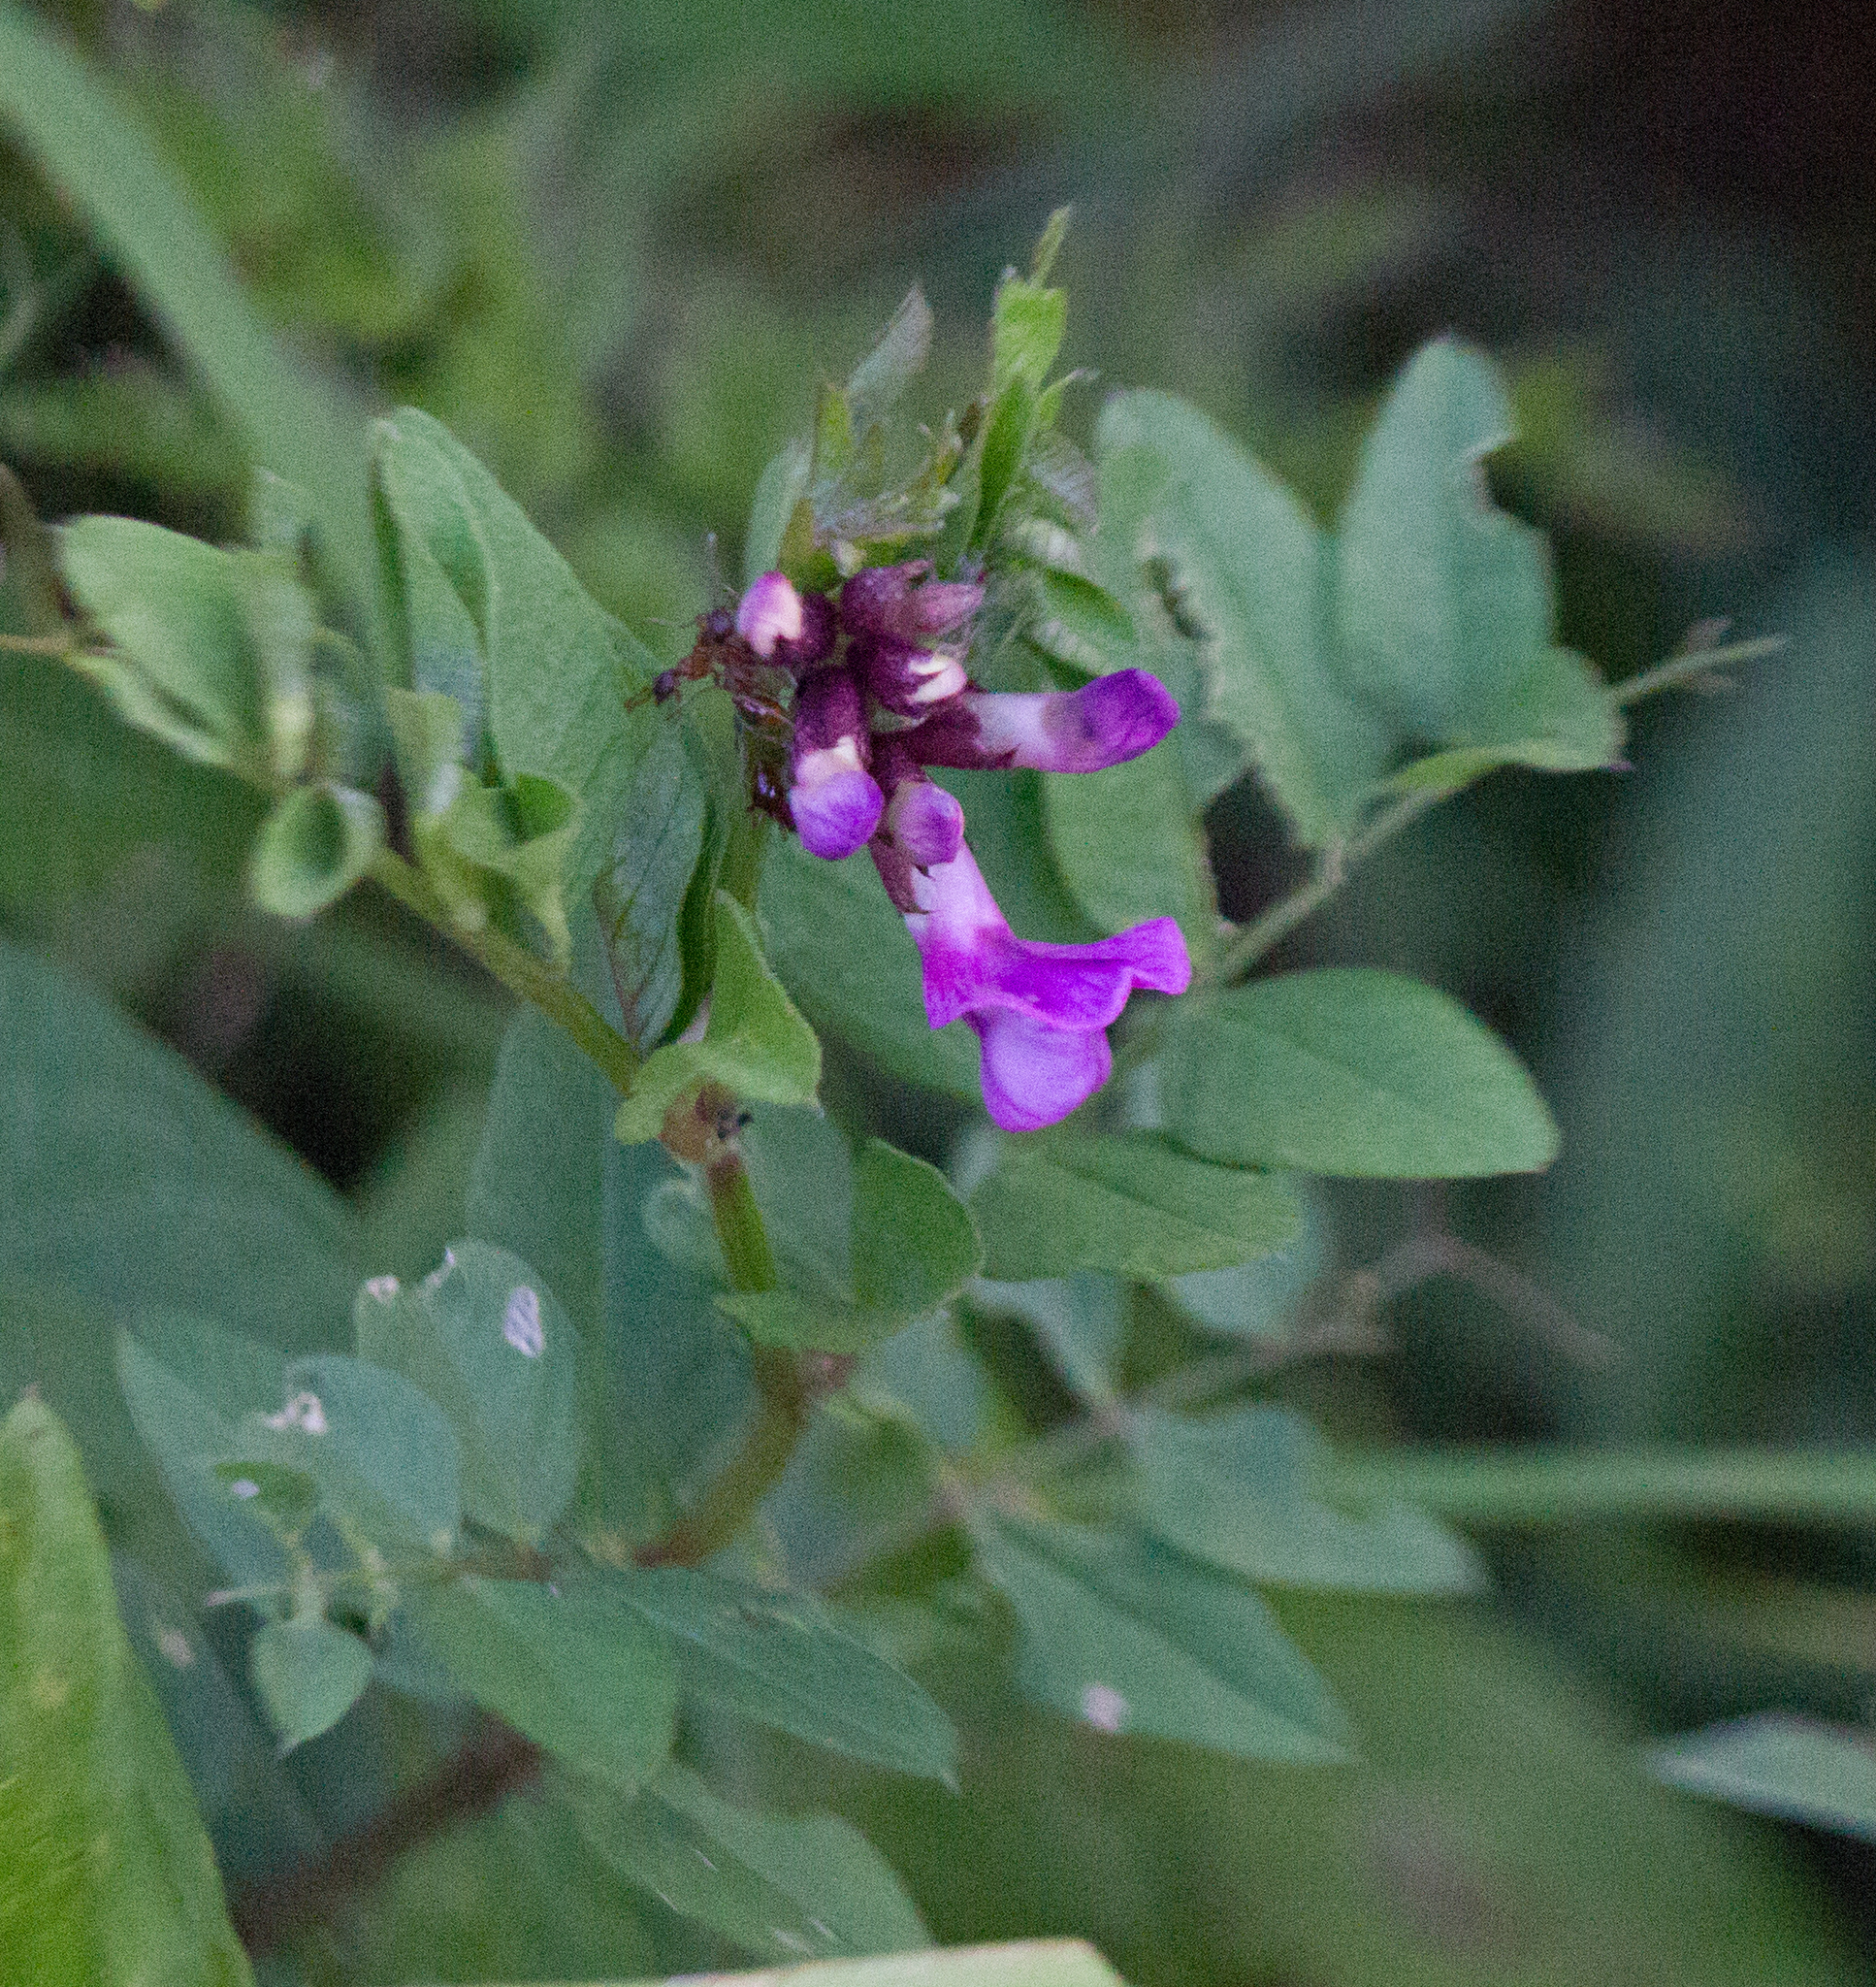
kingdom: Plantae
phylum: Tracheophyta
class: Magnoliopsida
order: Fabales
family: Fabaceae
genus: Vicia
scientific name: Vicia sepium
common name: Bush vetch
